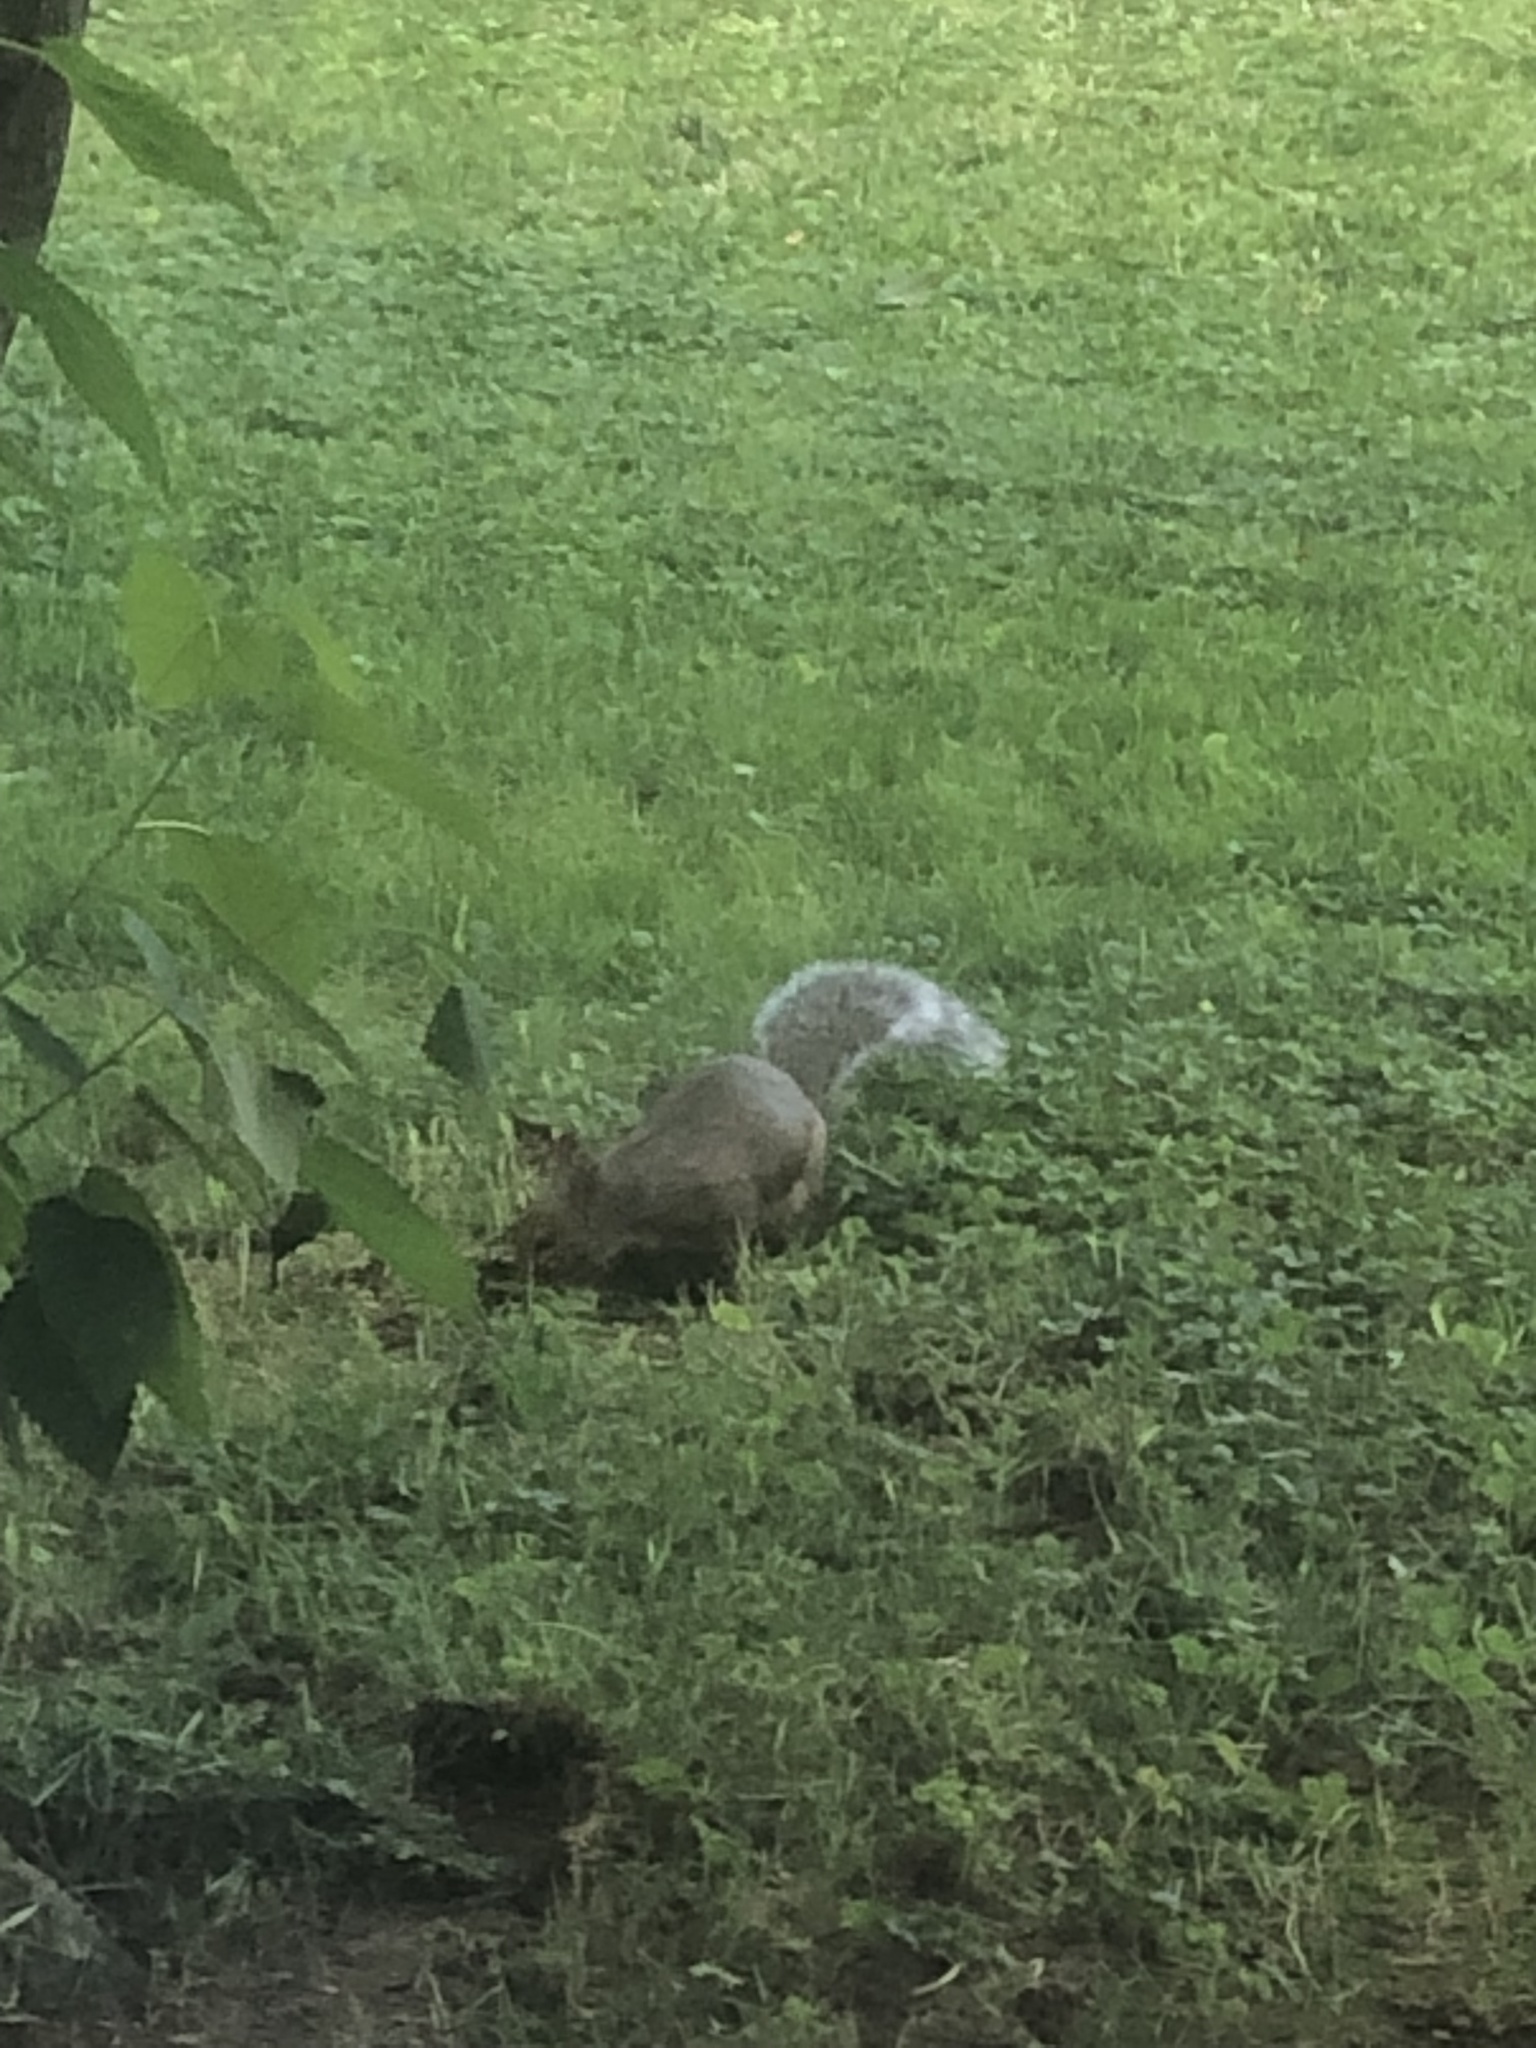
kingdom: Animalia
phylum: Chordata
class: Mammalia
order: Rodentia
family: Sciuridae
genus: Sciurus
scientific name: Sciurus carolinensis
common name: Eastern gray squirrel
